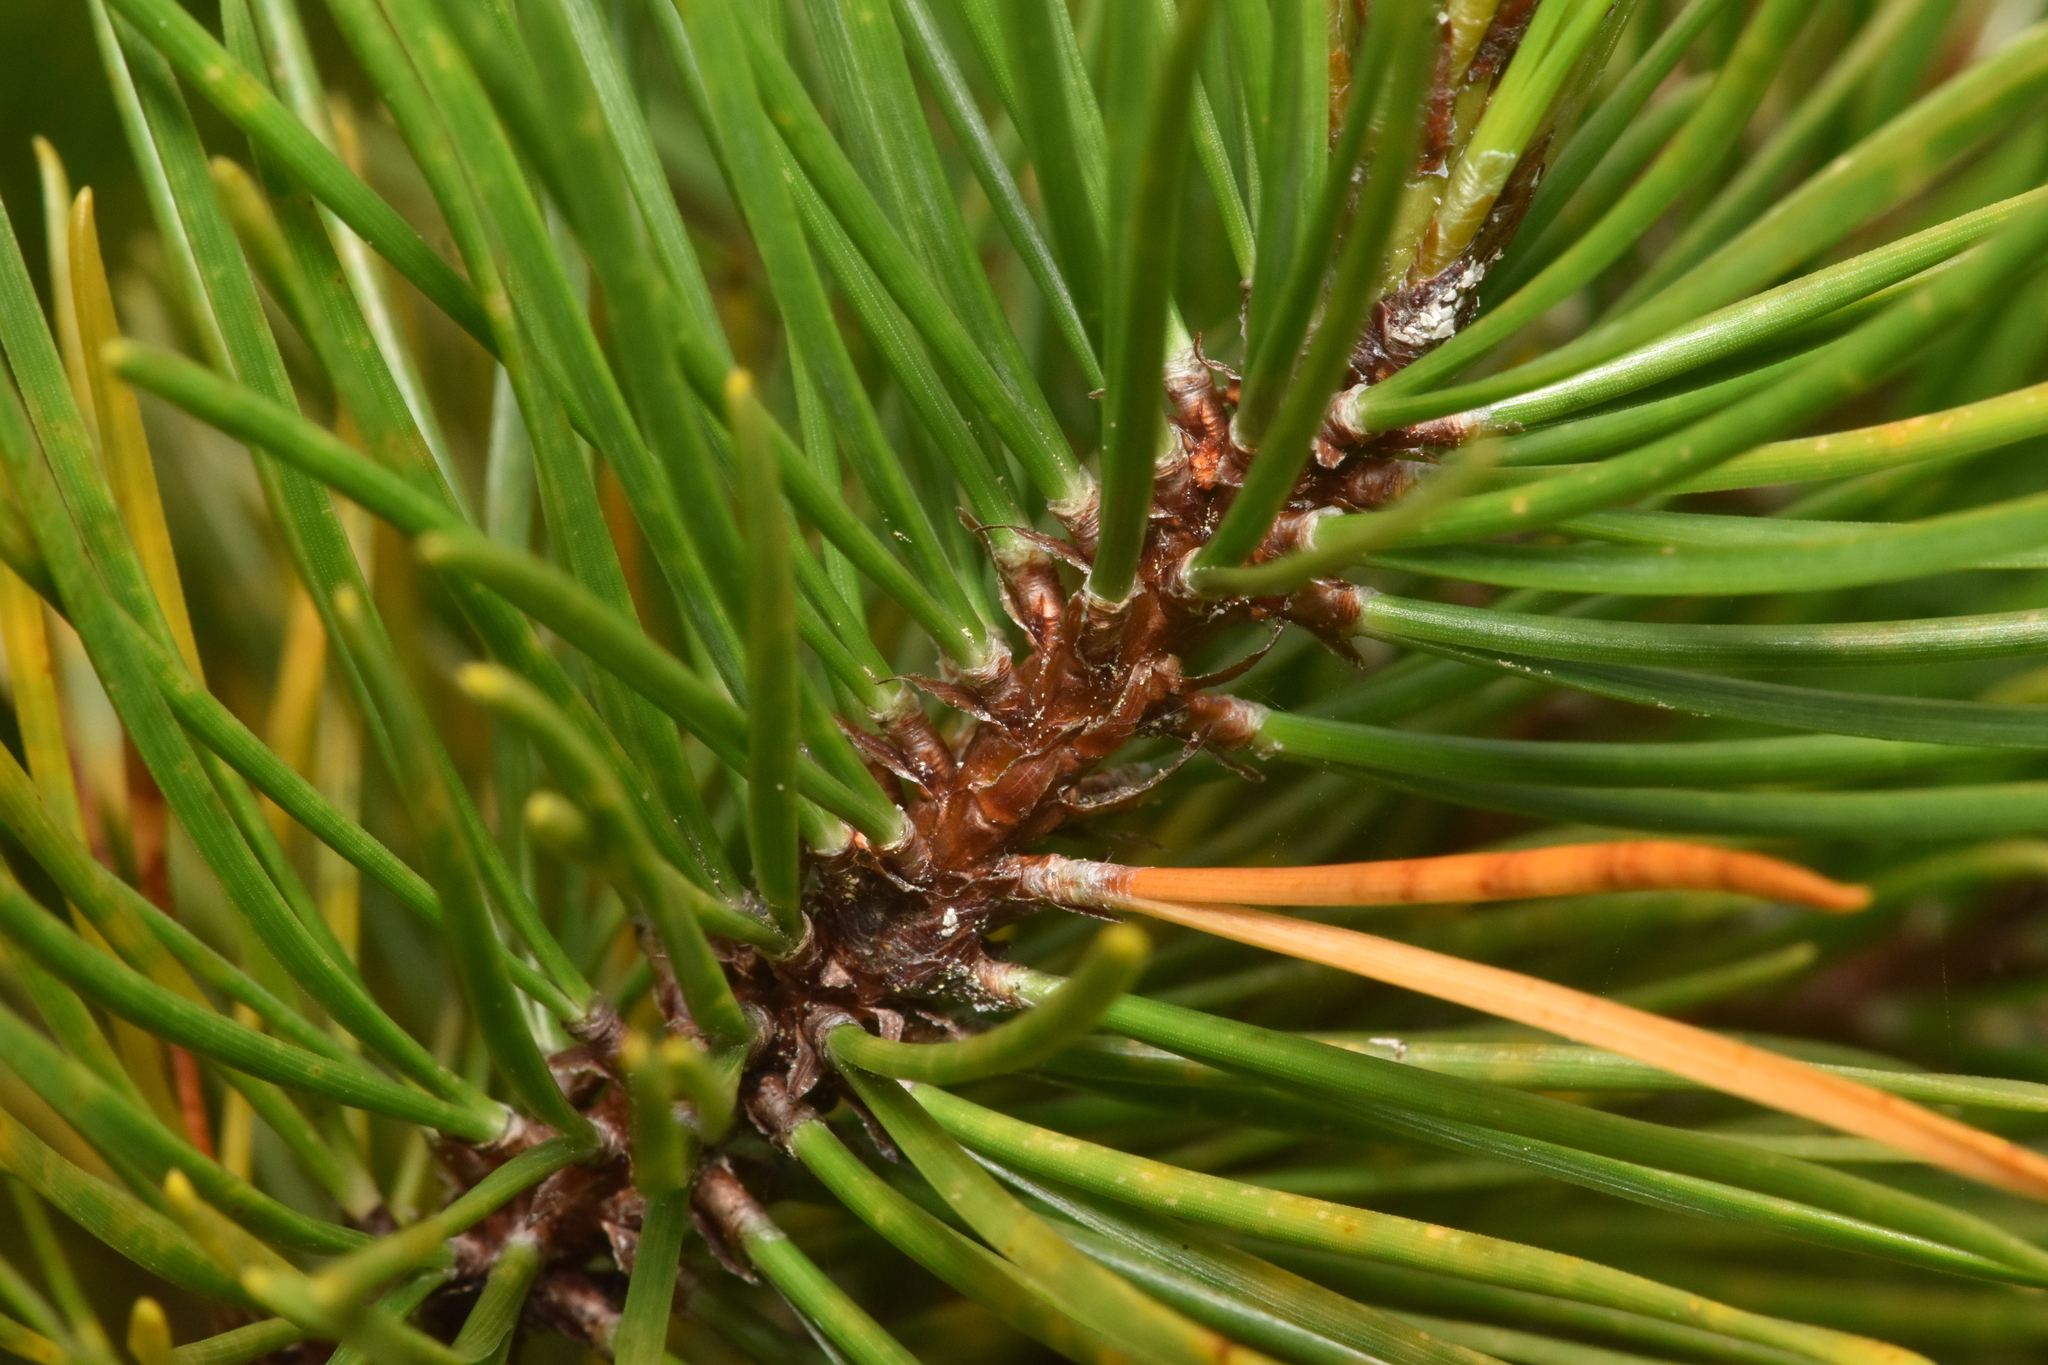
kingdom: Plantae
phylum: Tracheophyta
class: Pinopsida
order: Pinales
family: Pinaceae
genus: Pinus
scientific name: Pinus contorta
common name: Lodgepole pine
